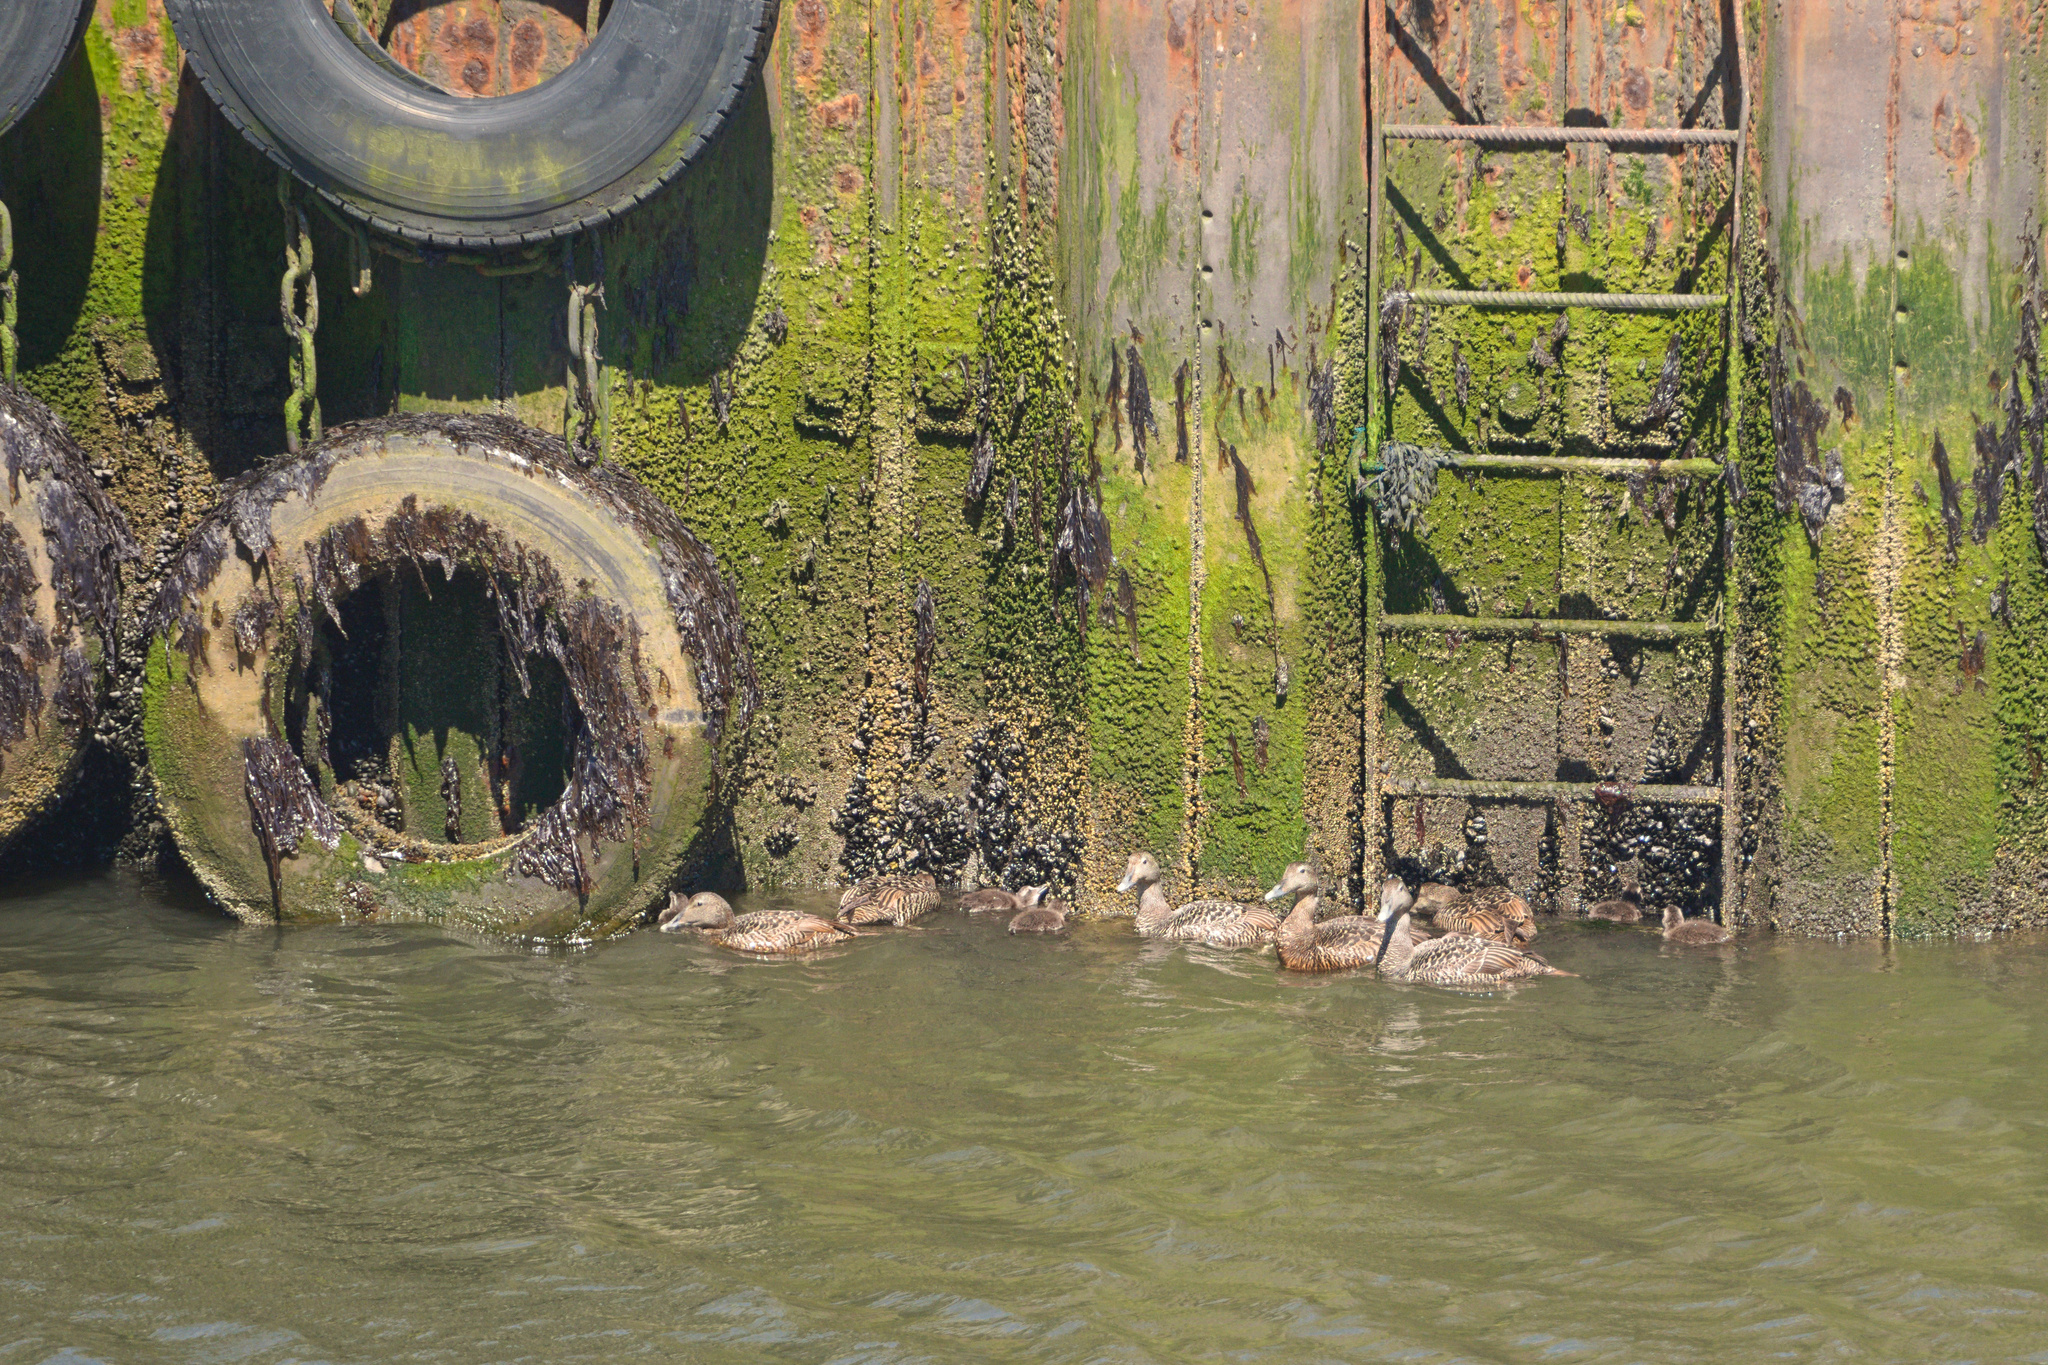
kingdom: Animalia
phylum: Chordata
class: Aves
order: Anseriformes
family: Anatidae
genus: Somateria
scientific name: Somateria mollissima
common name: Common eider
